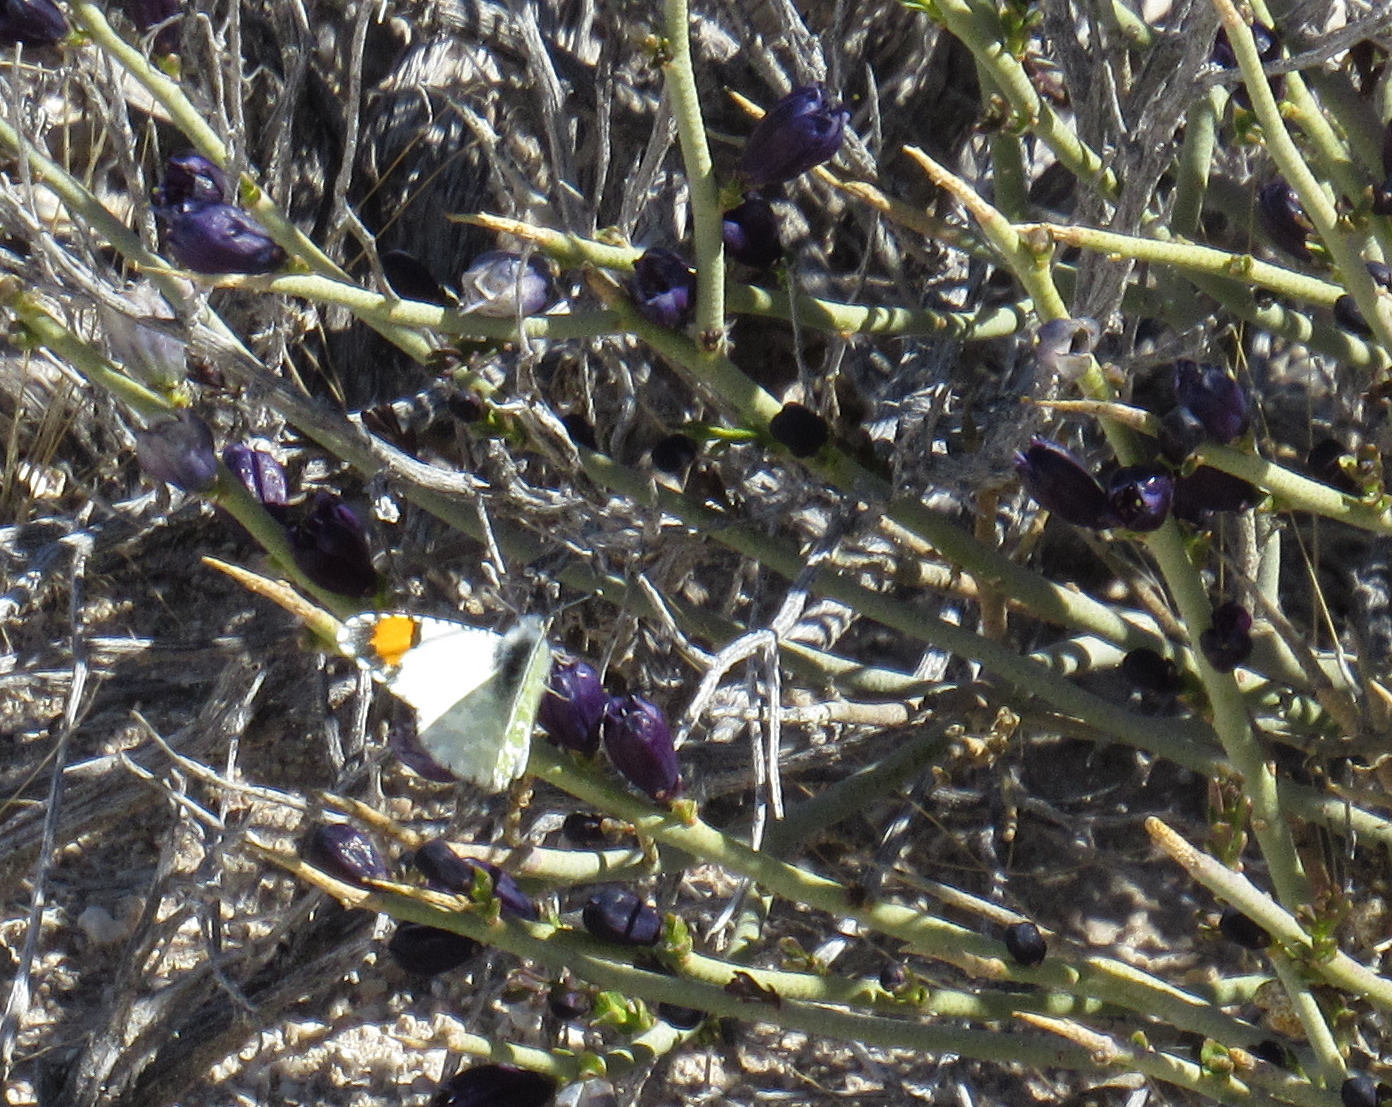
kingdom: Animalia
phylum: Arthropoda
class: Insecta
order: Lepidoptera
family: Pieridae
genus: Anthocharis
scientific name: Anthocharis cethura
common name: Desert orangetip
